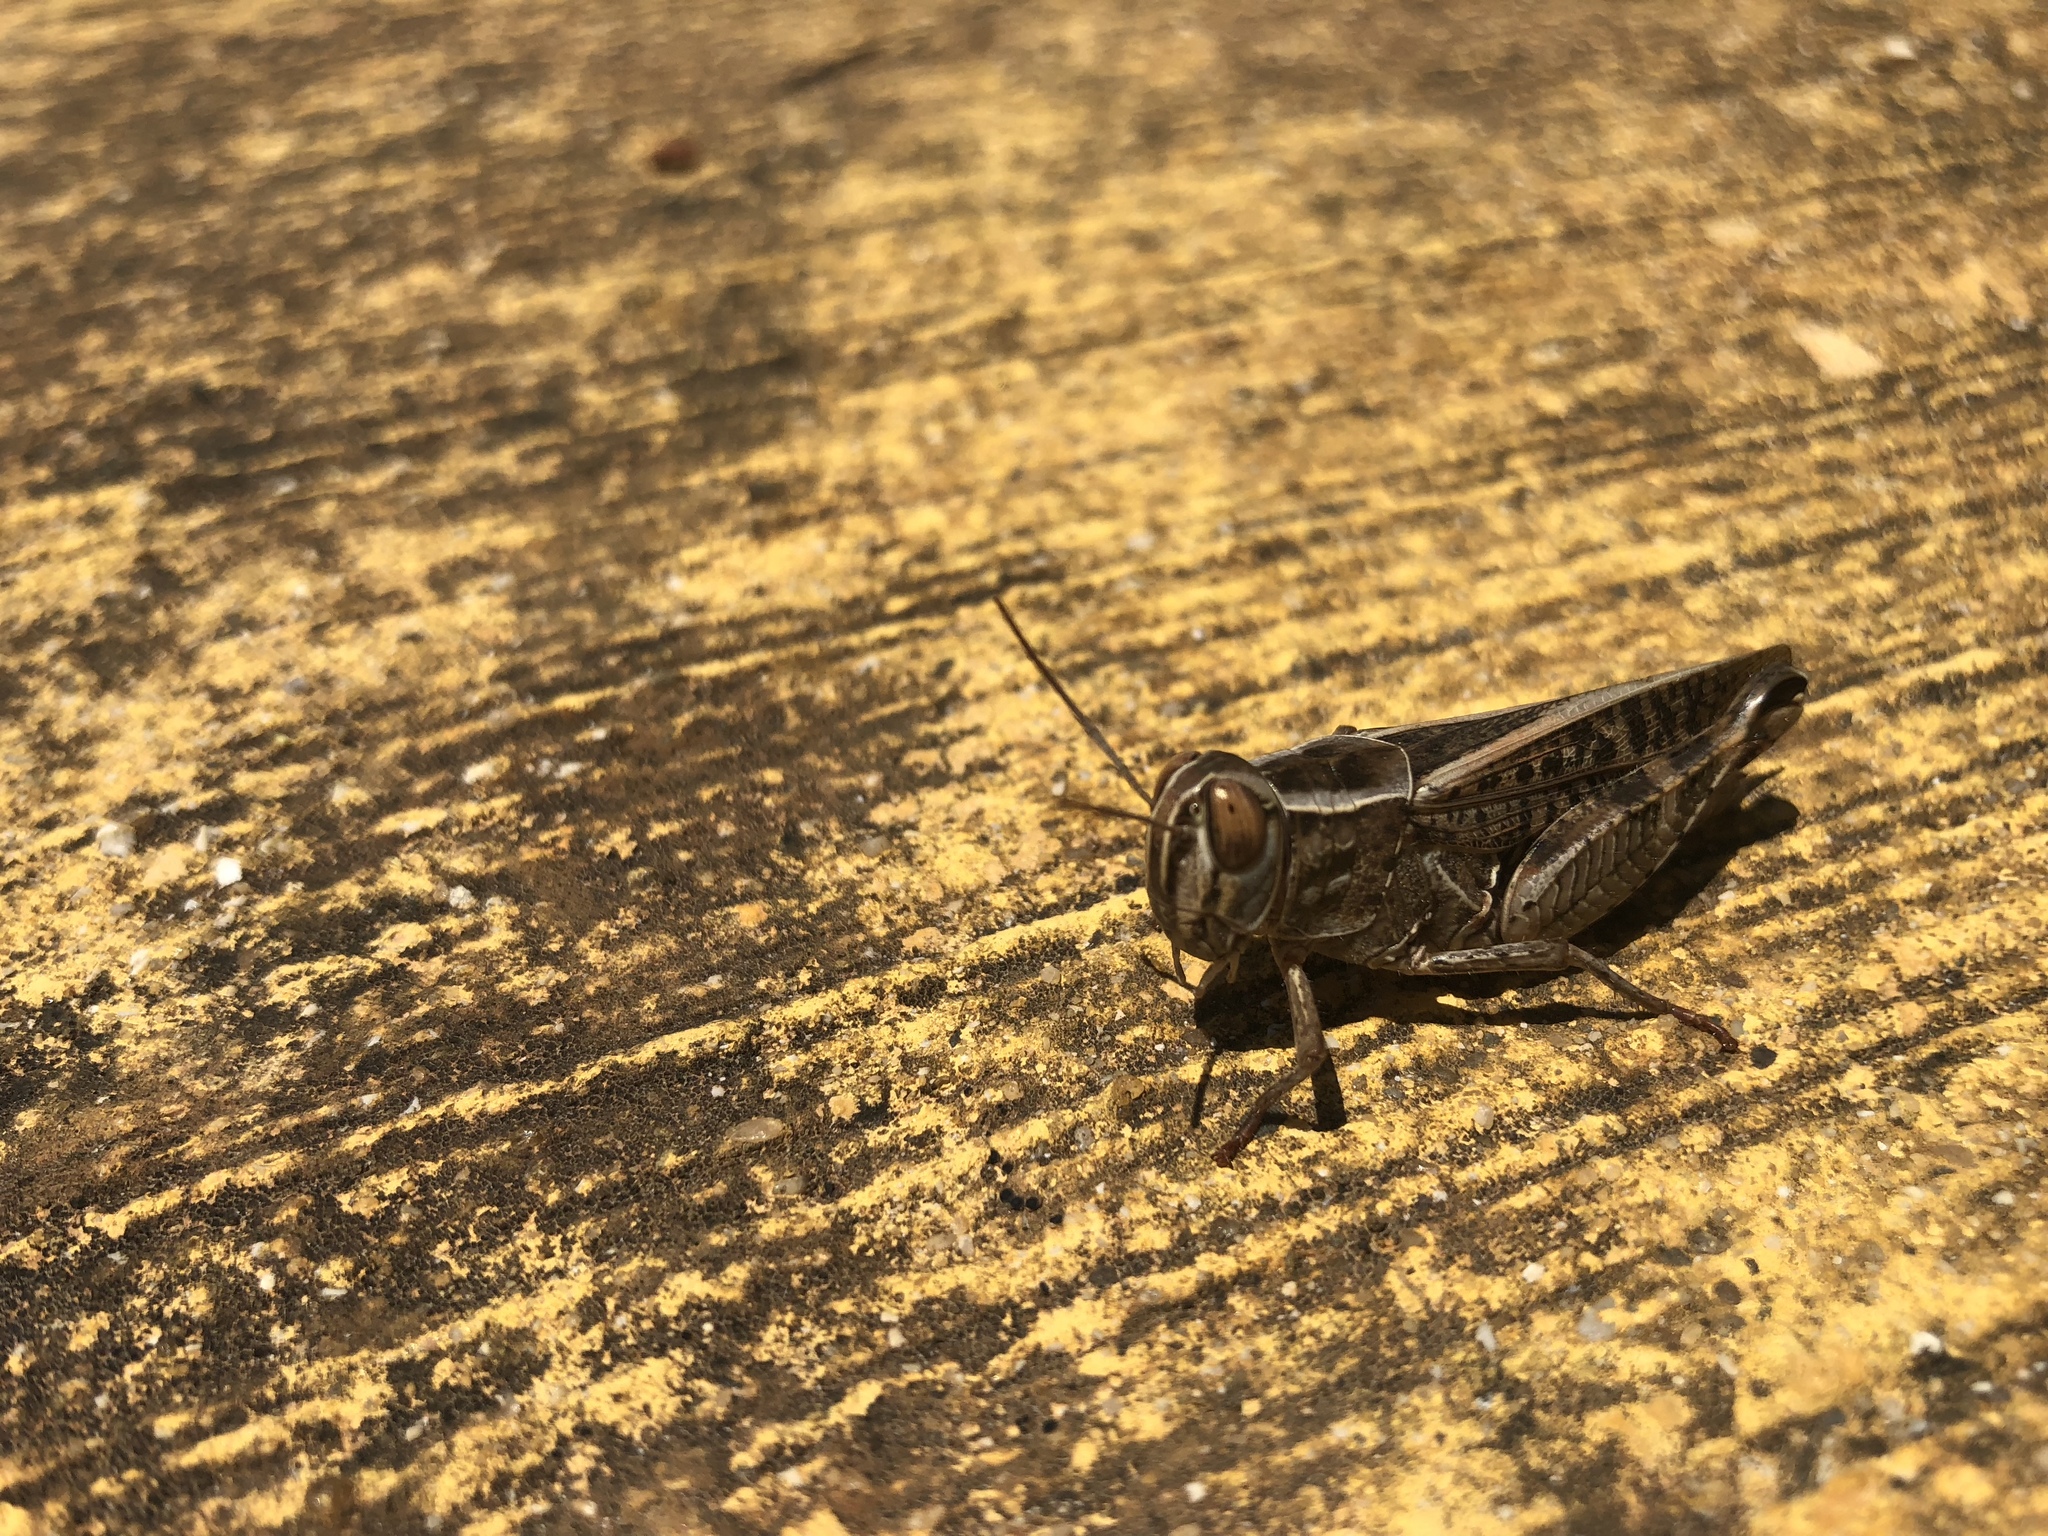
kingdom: Animalia
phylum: Arthropoda
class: Insecta
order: Orthoptera
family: Acrididae
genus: Calliptamus
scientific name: Calliptamus
